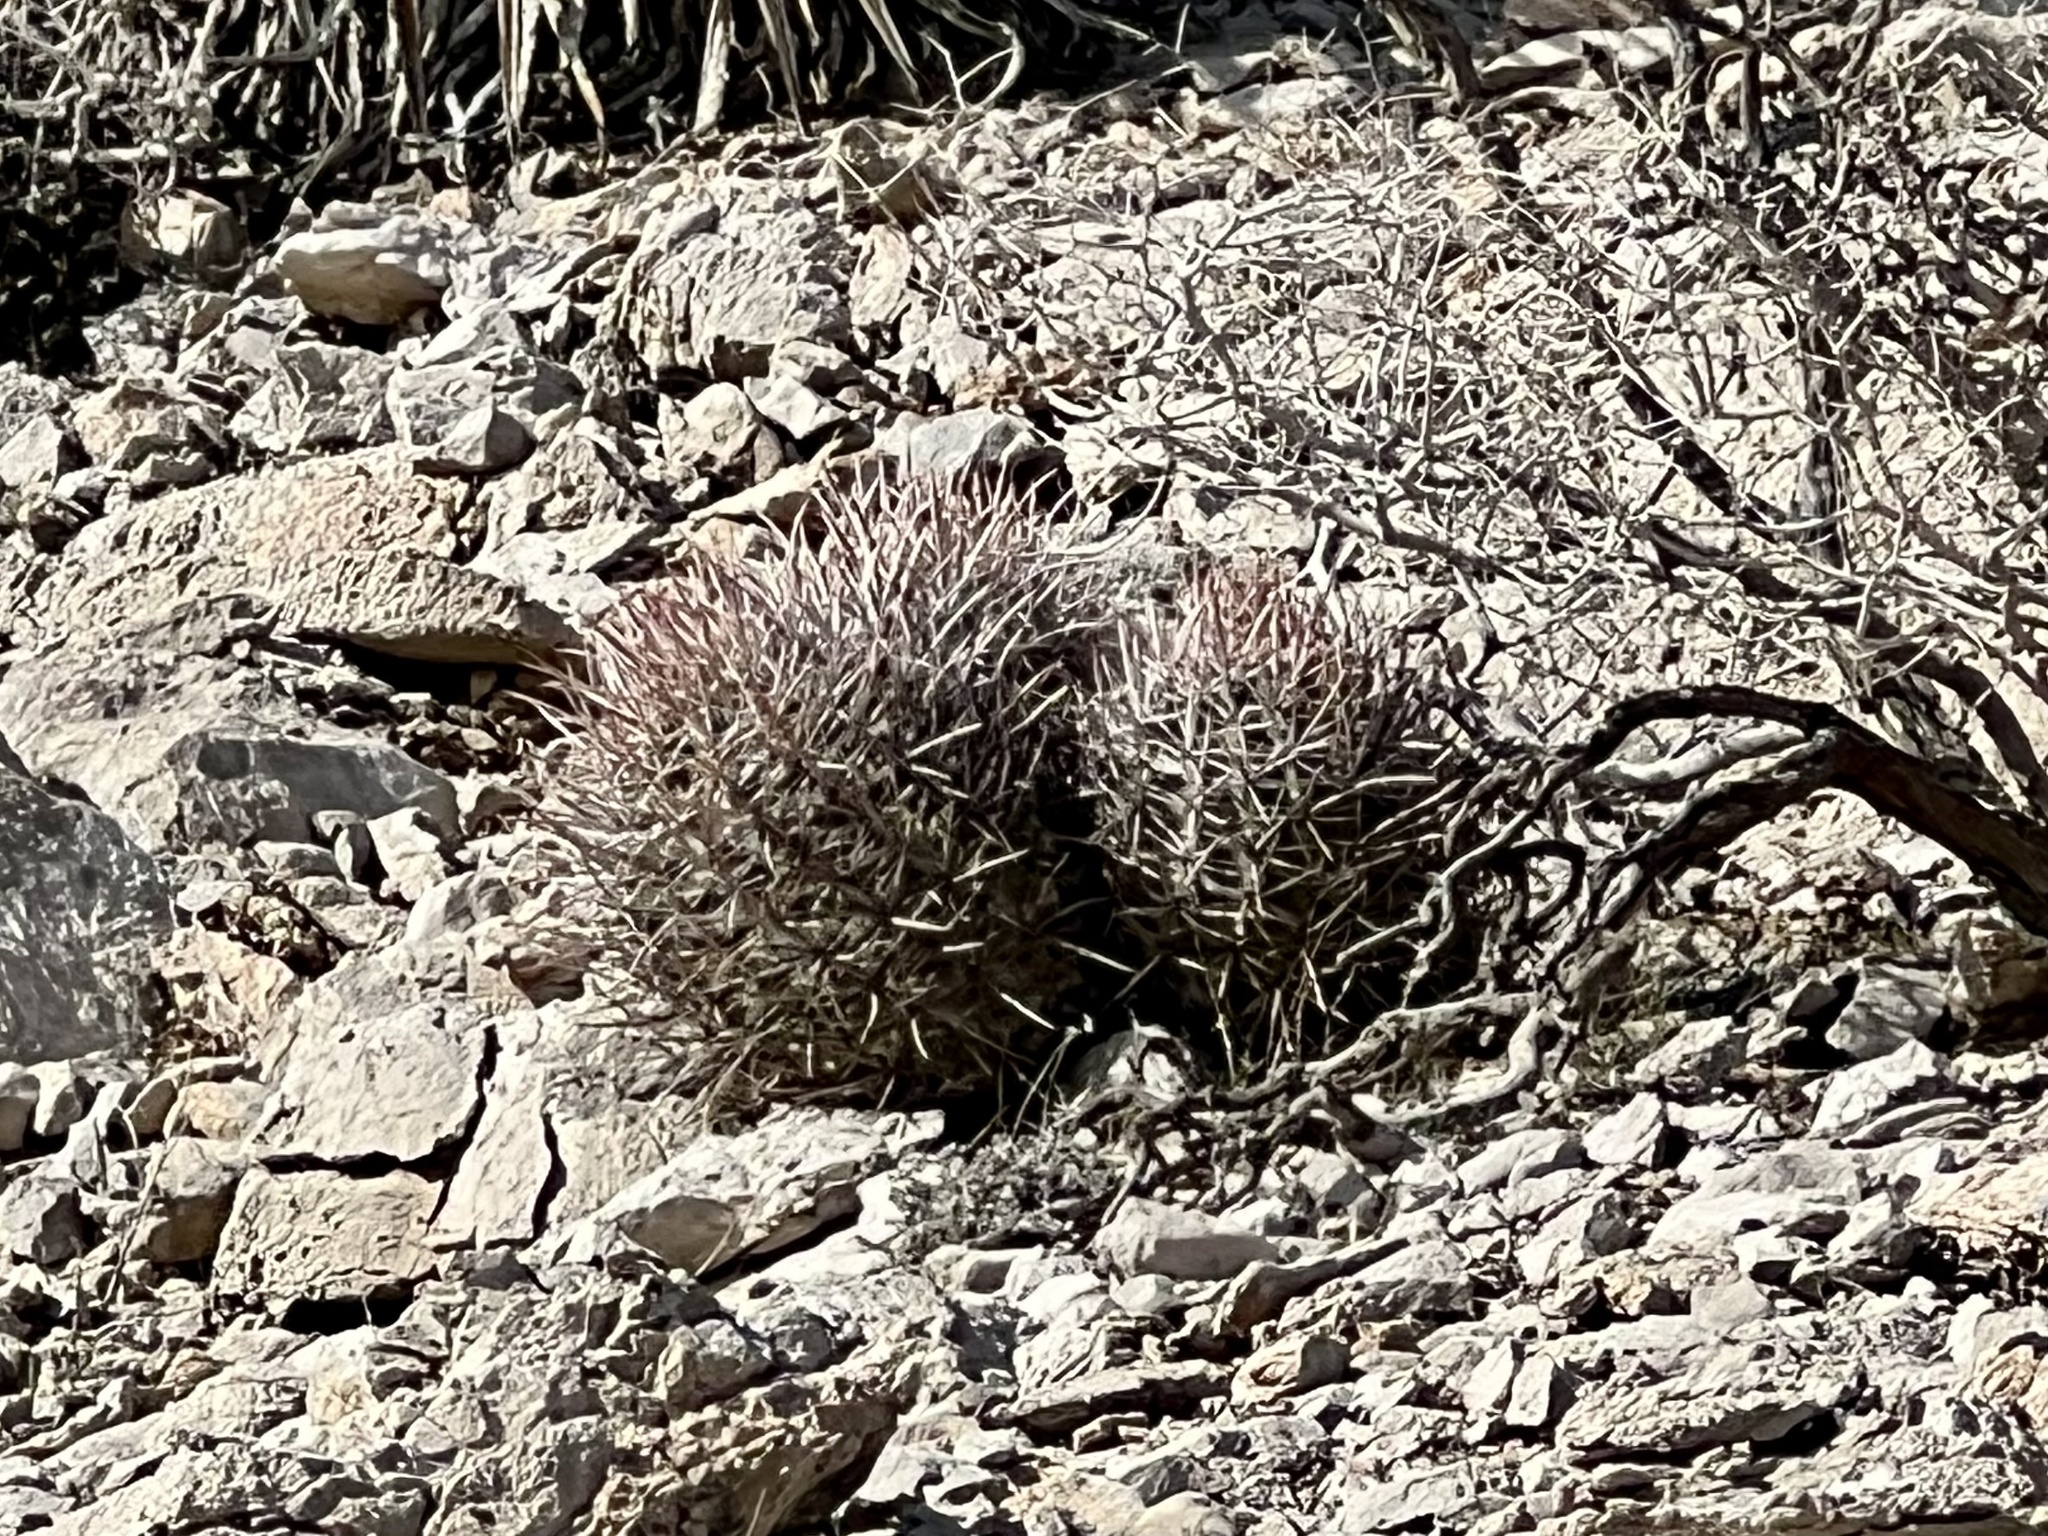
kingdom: Plantae
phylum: Tracheophyta
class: Magnoliopsida
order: Caryophyllales
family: Cactaceae
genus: Echinocactus
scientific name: Echinocactus polycephalus
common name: Cottontop cactus
